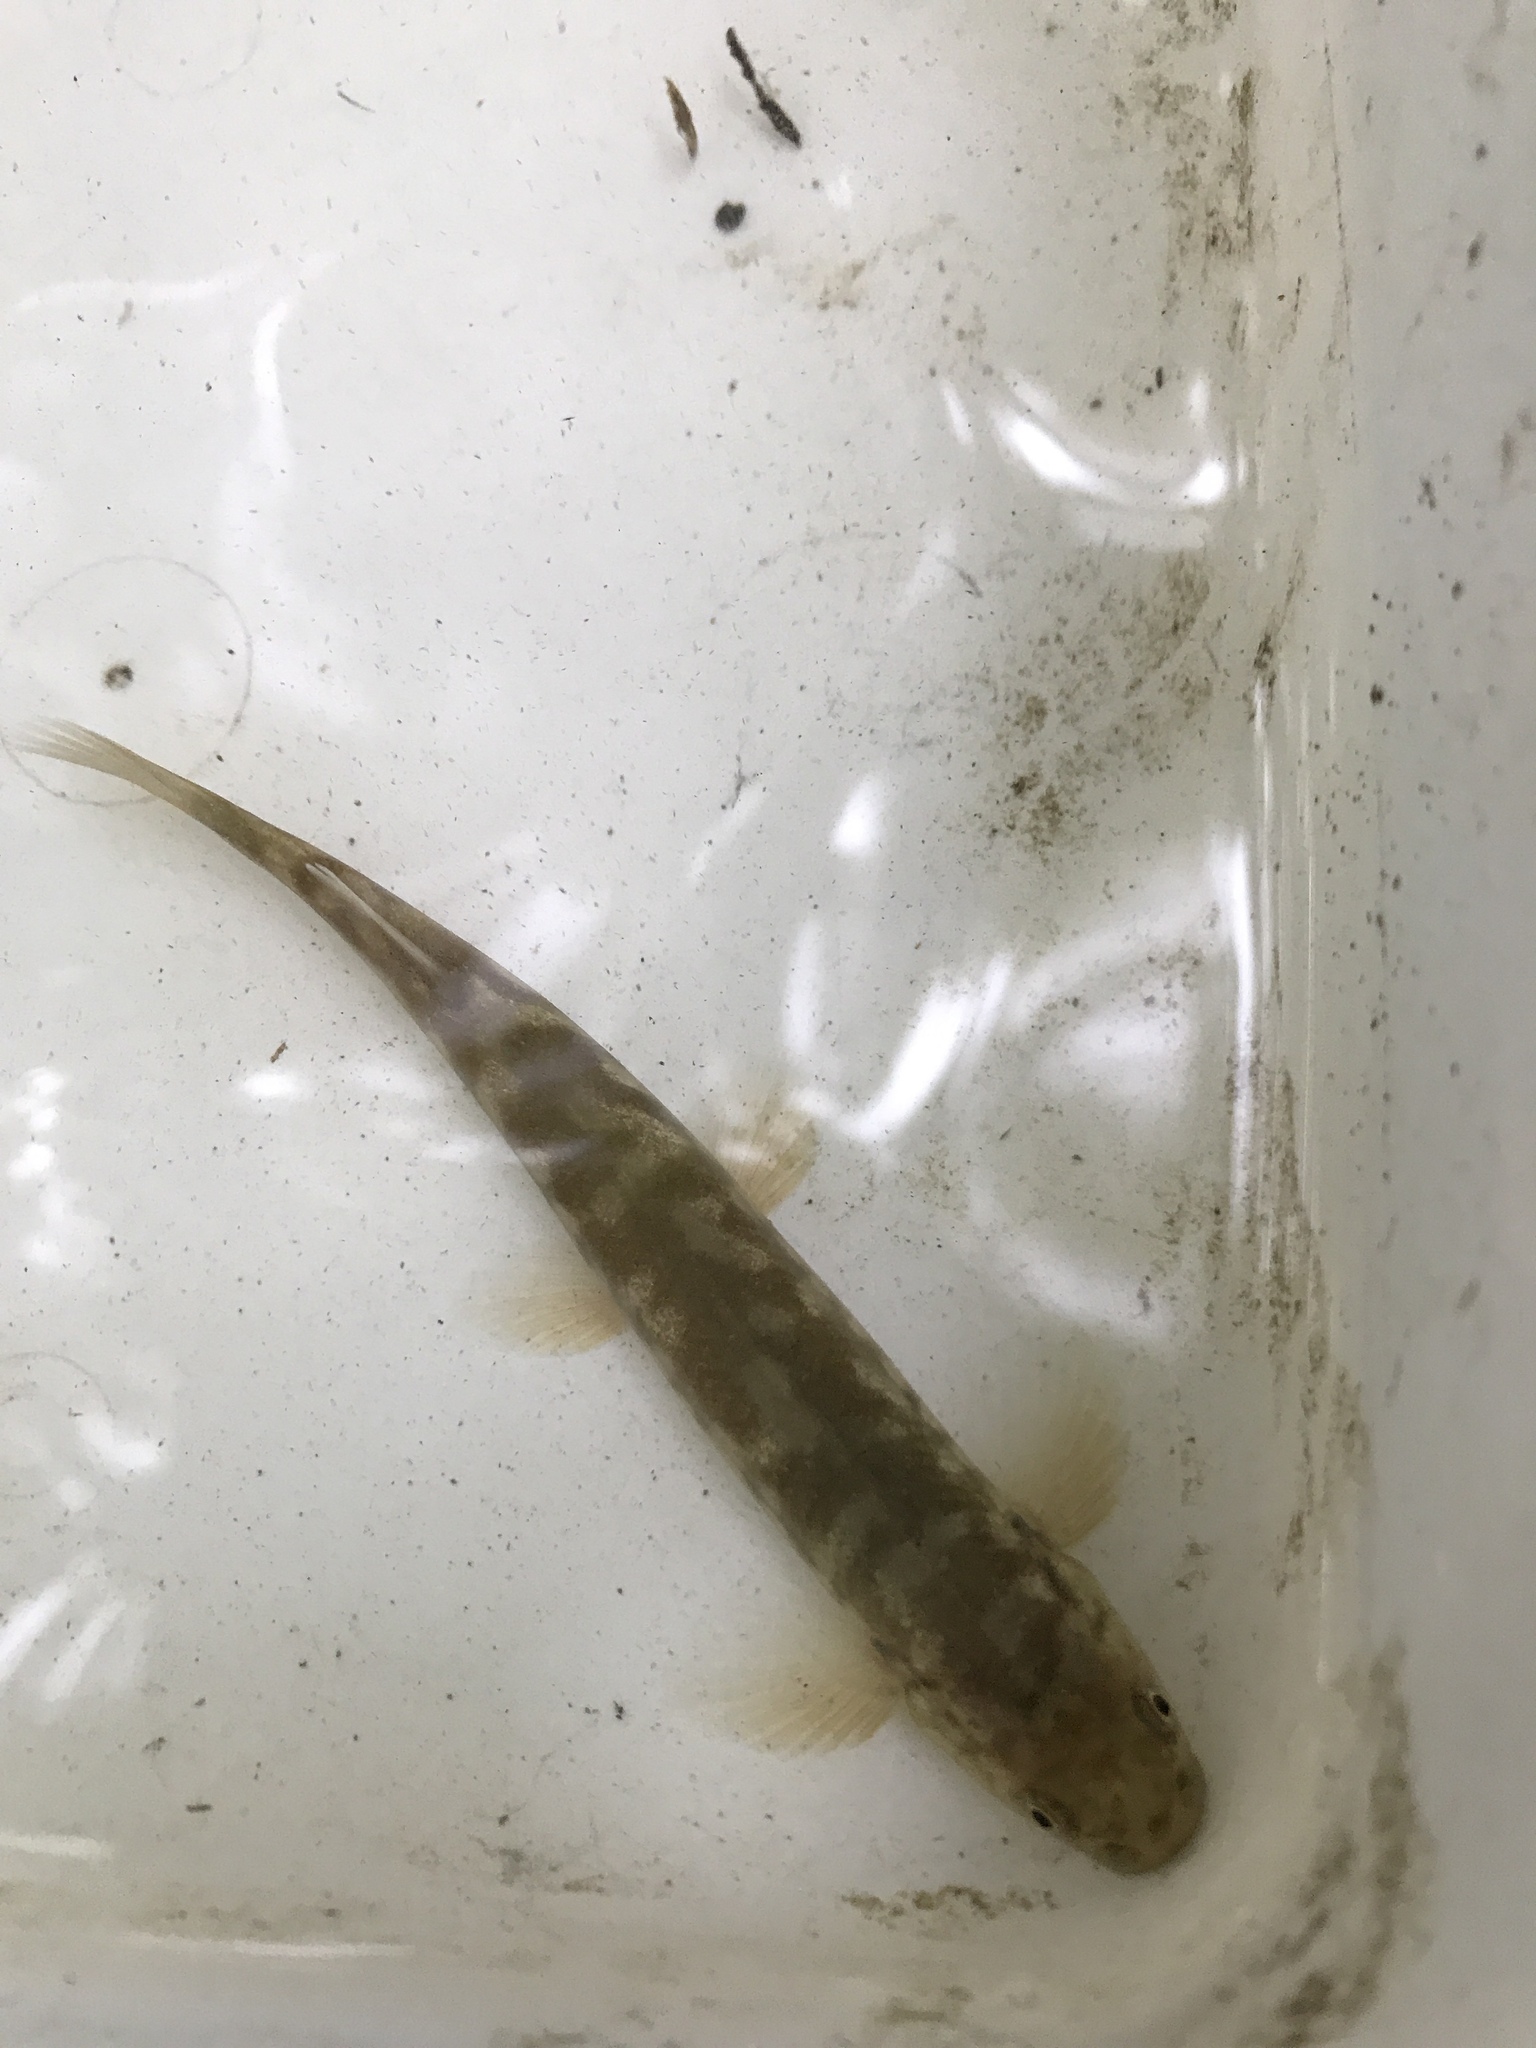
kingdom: Animalia
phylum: Chordata
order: Osmeriformes
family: Galaxiidae
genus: Galaxias
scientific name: Galaxias brevipinnis
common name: Koaro
